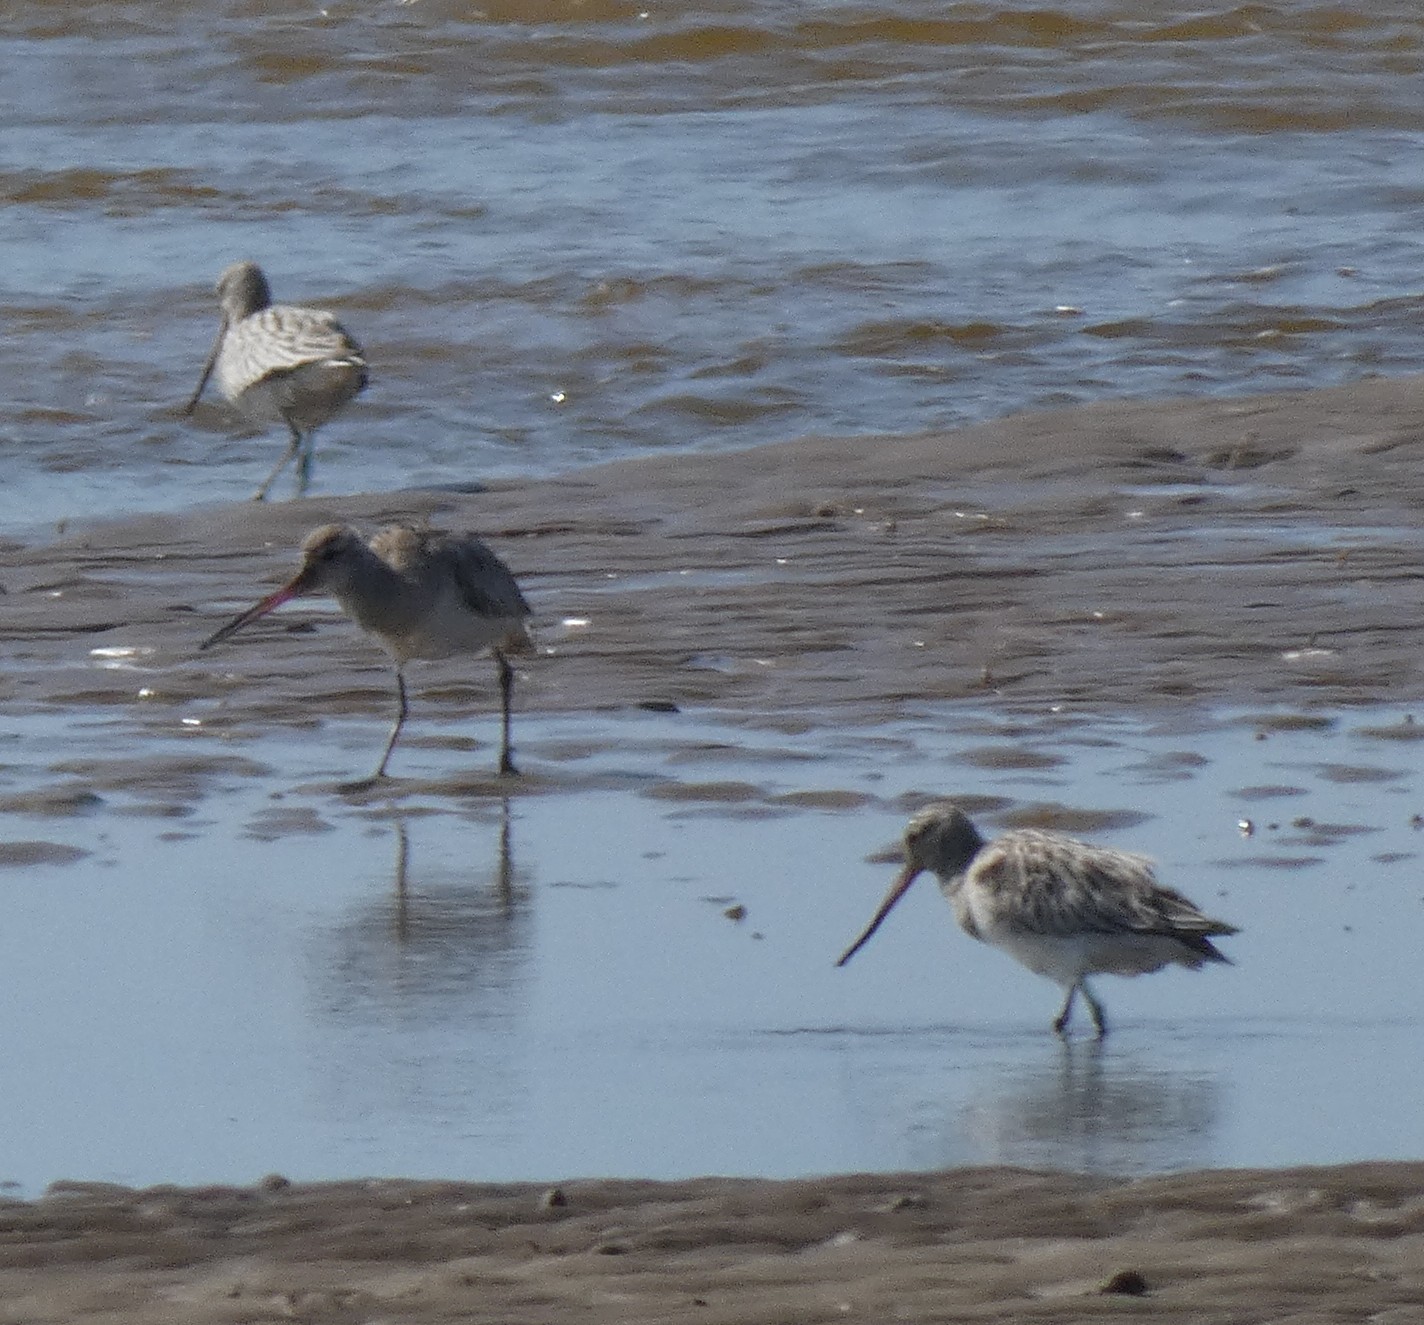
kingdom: Animalia
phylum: Chordata
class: Aves
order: Charadriiformes
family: Scolopacidae
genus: Limosa
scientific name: Limosa lapponica
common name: Bar-tailed godwit
